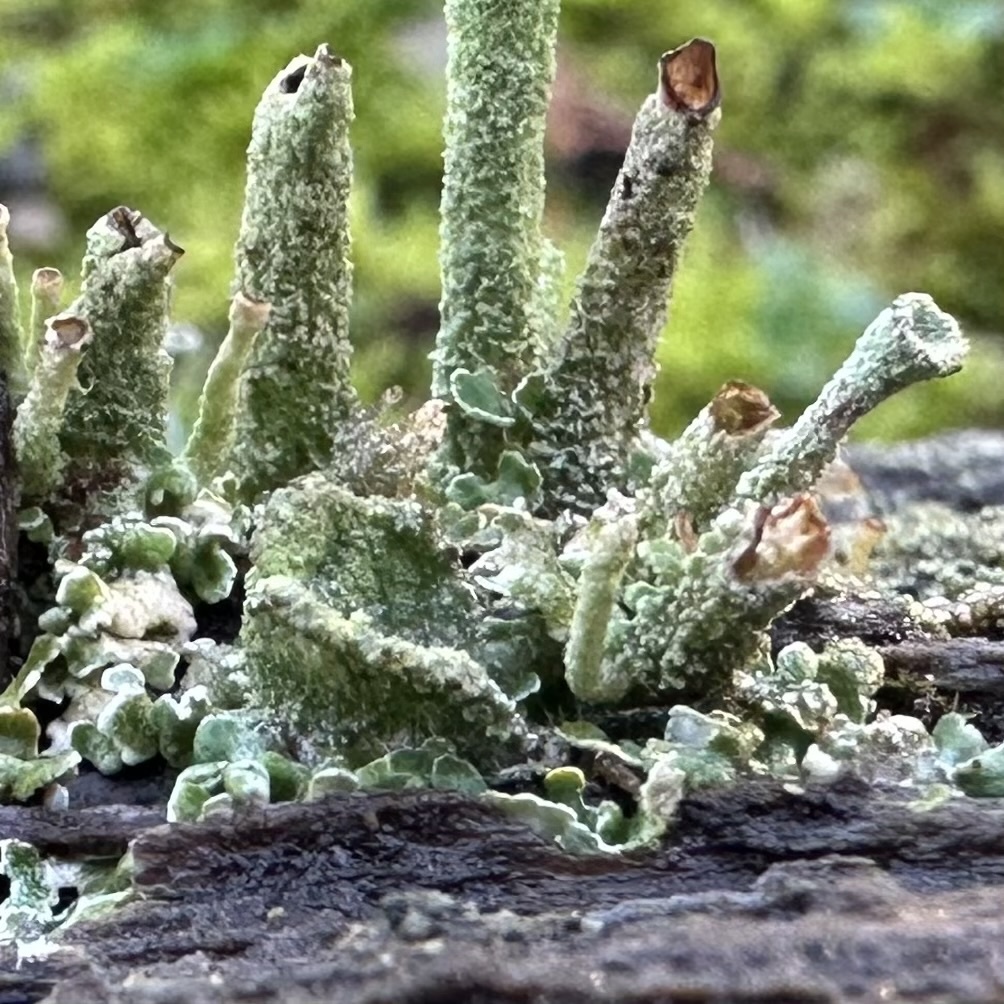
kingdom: Fungi
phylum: Ascomycota
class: Lecanoromycetes
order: Lecanorales
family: Cladoniaceae
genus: Cladonia
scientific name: Cladonia fimbriata
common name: Powdered trumpet lichen
